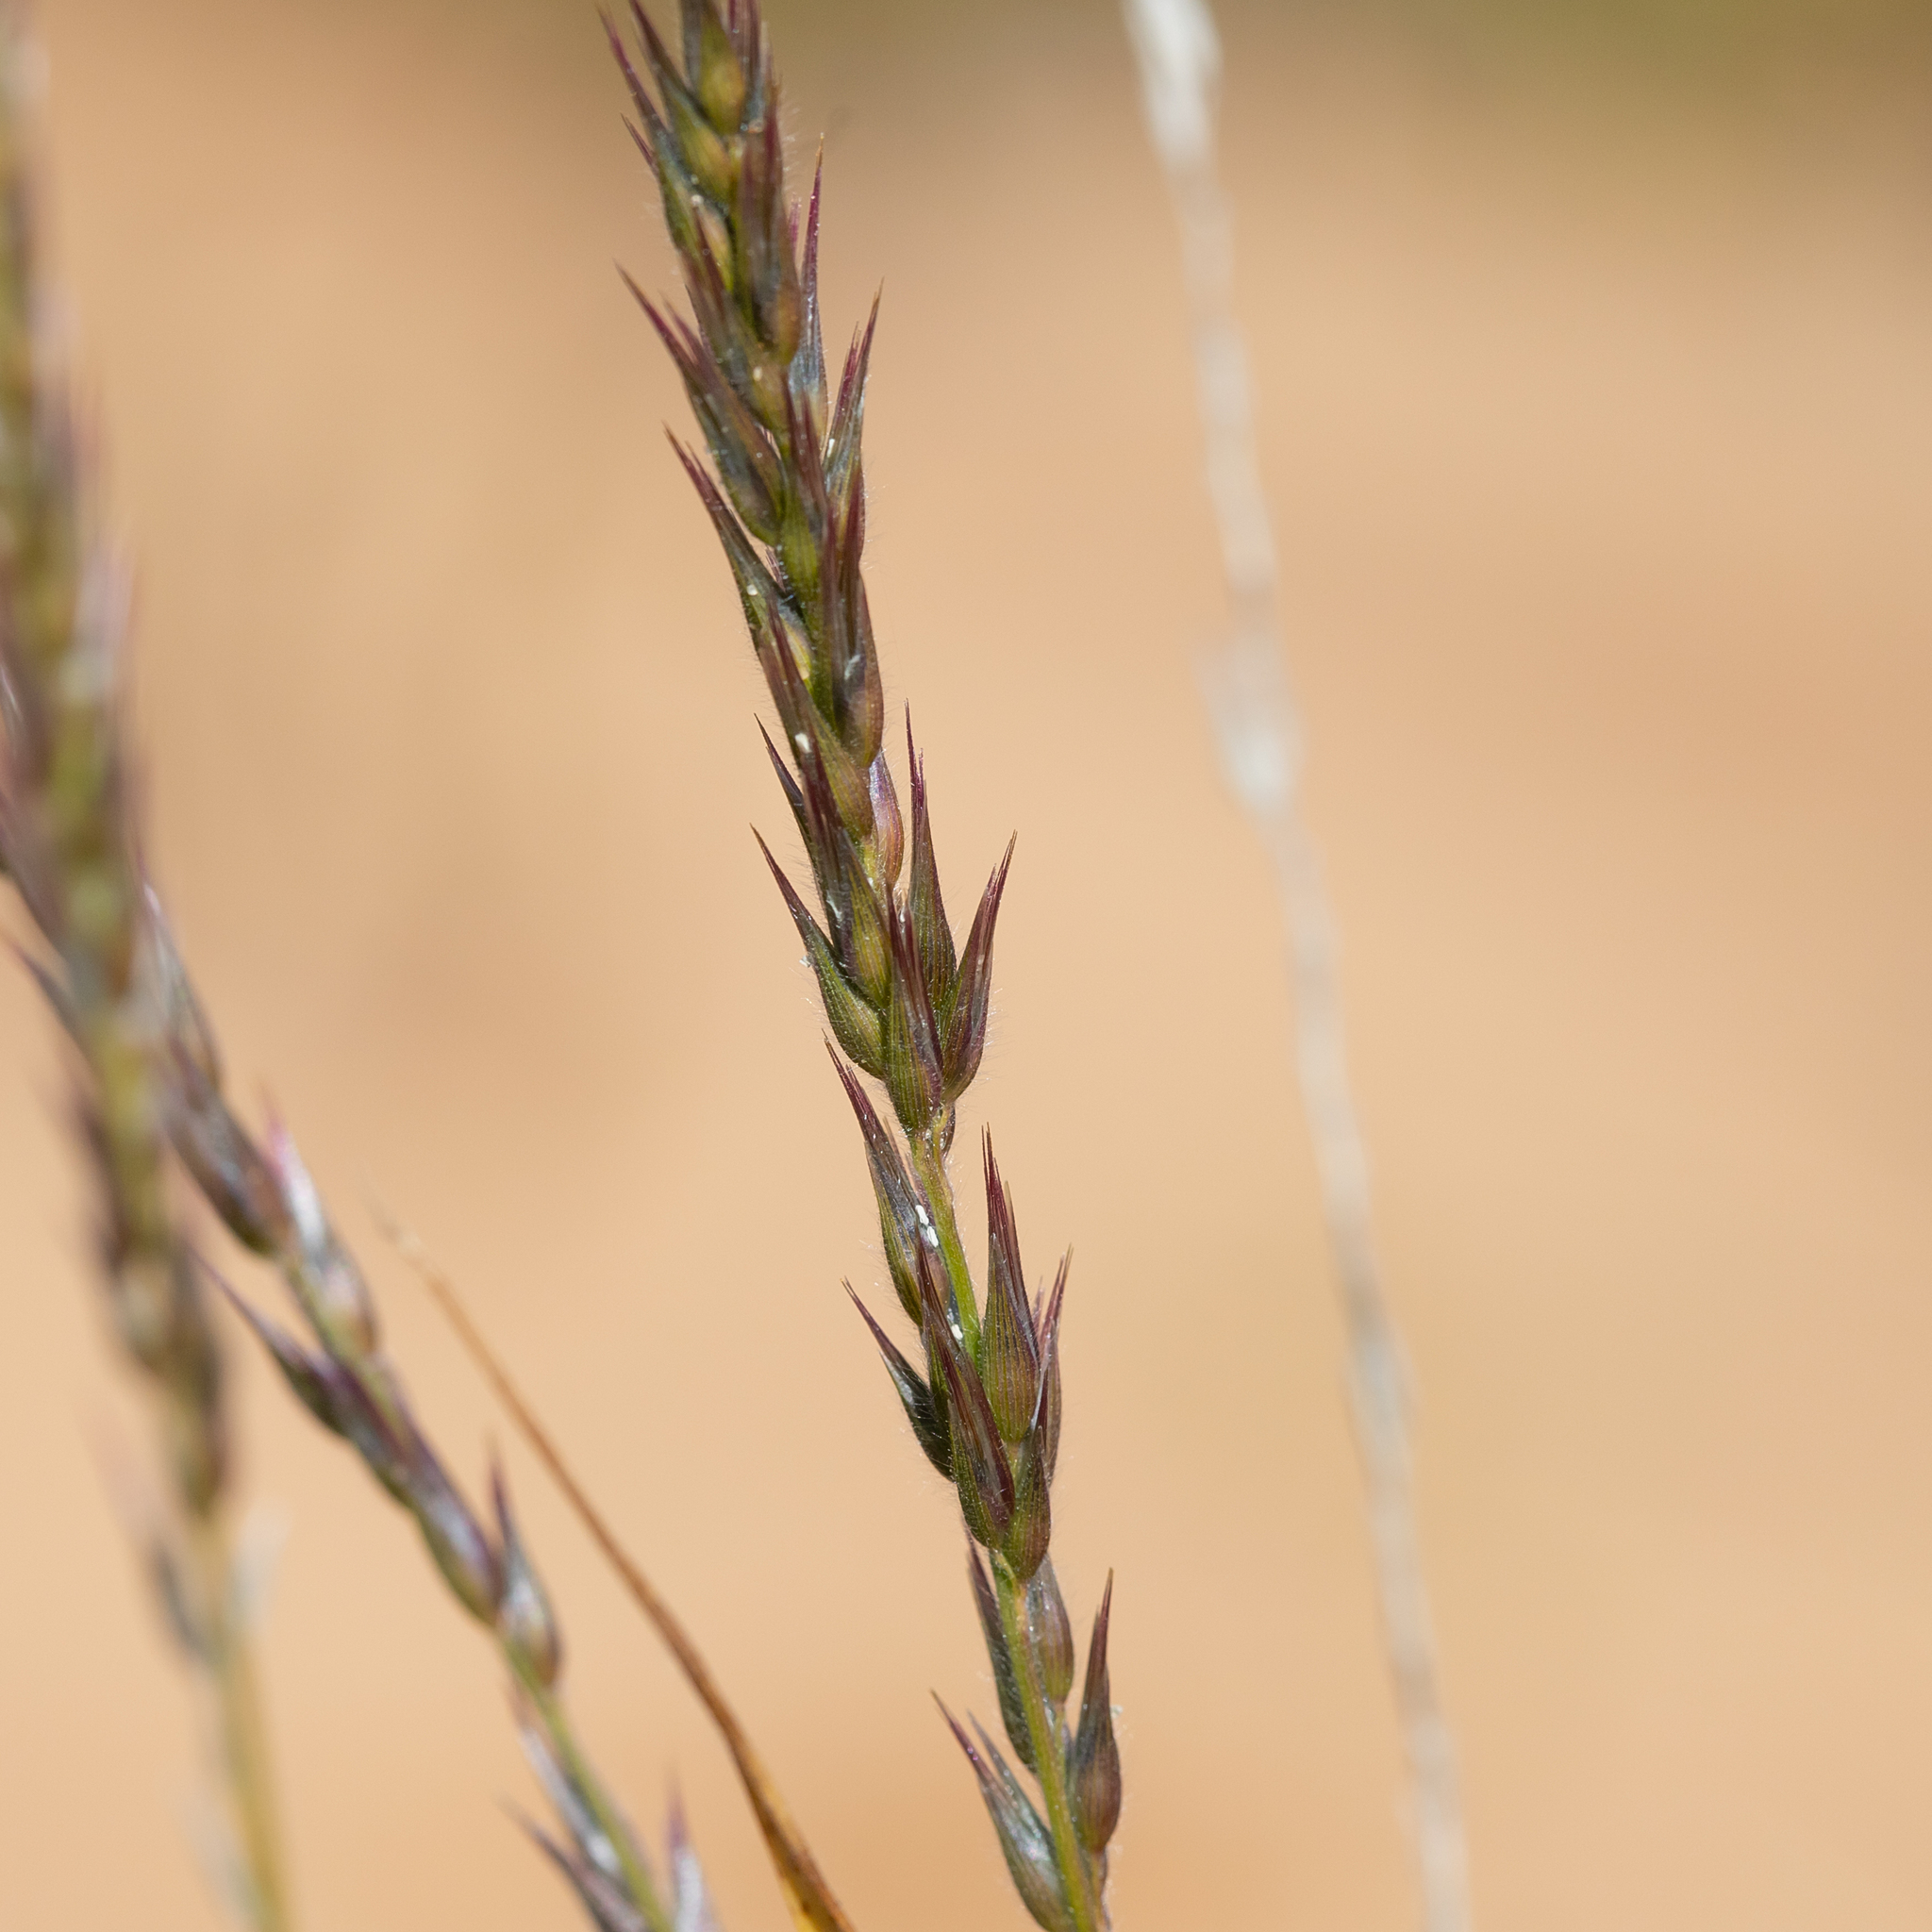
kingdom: Plantae
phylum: Tracheophyta
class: Liliopsida
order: Poales
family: Poaceae
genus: Enneapogon
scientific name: Enneapogon polyphyllus
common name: Leafy nineawn
